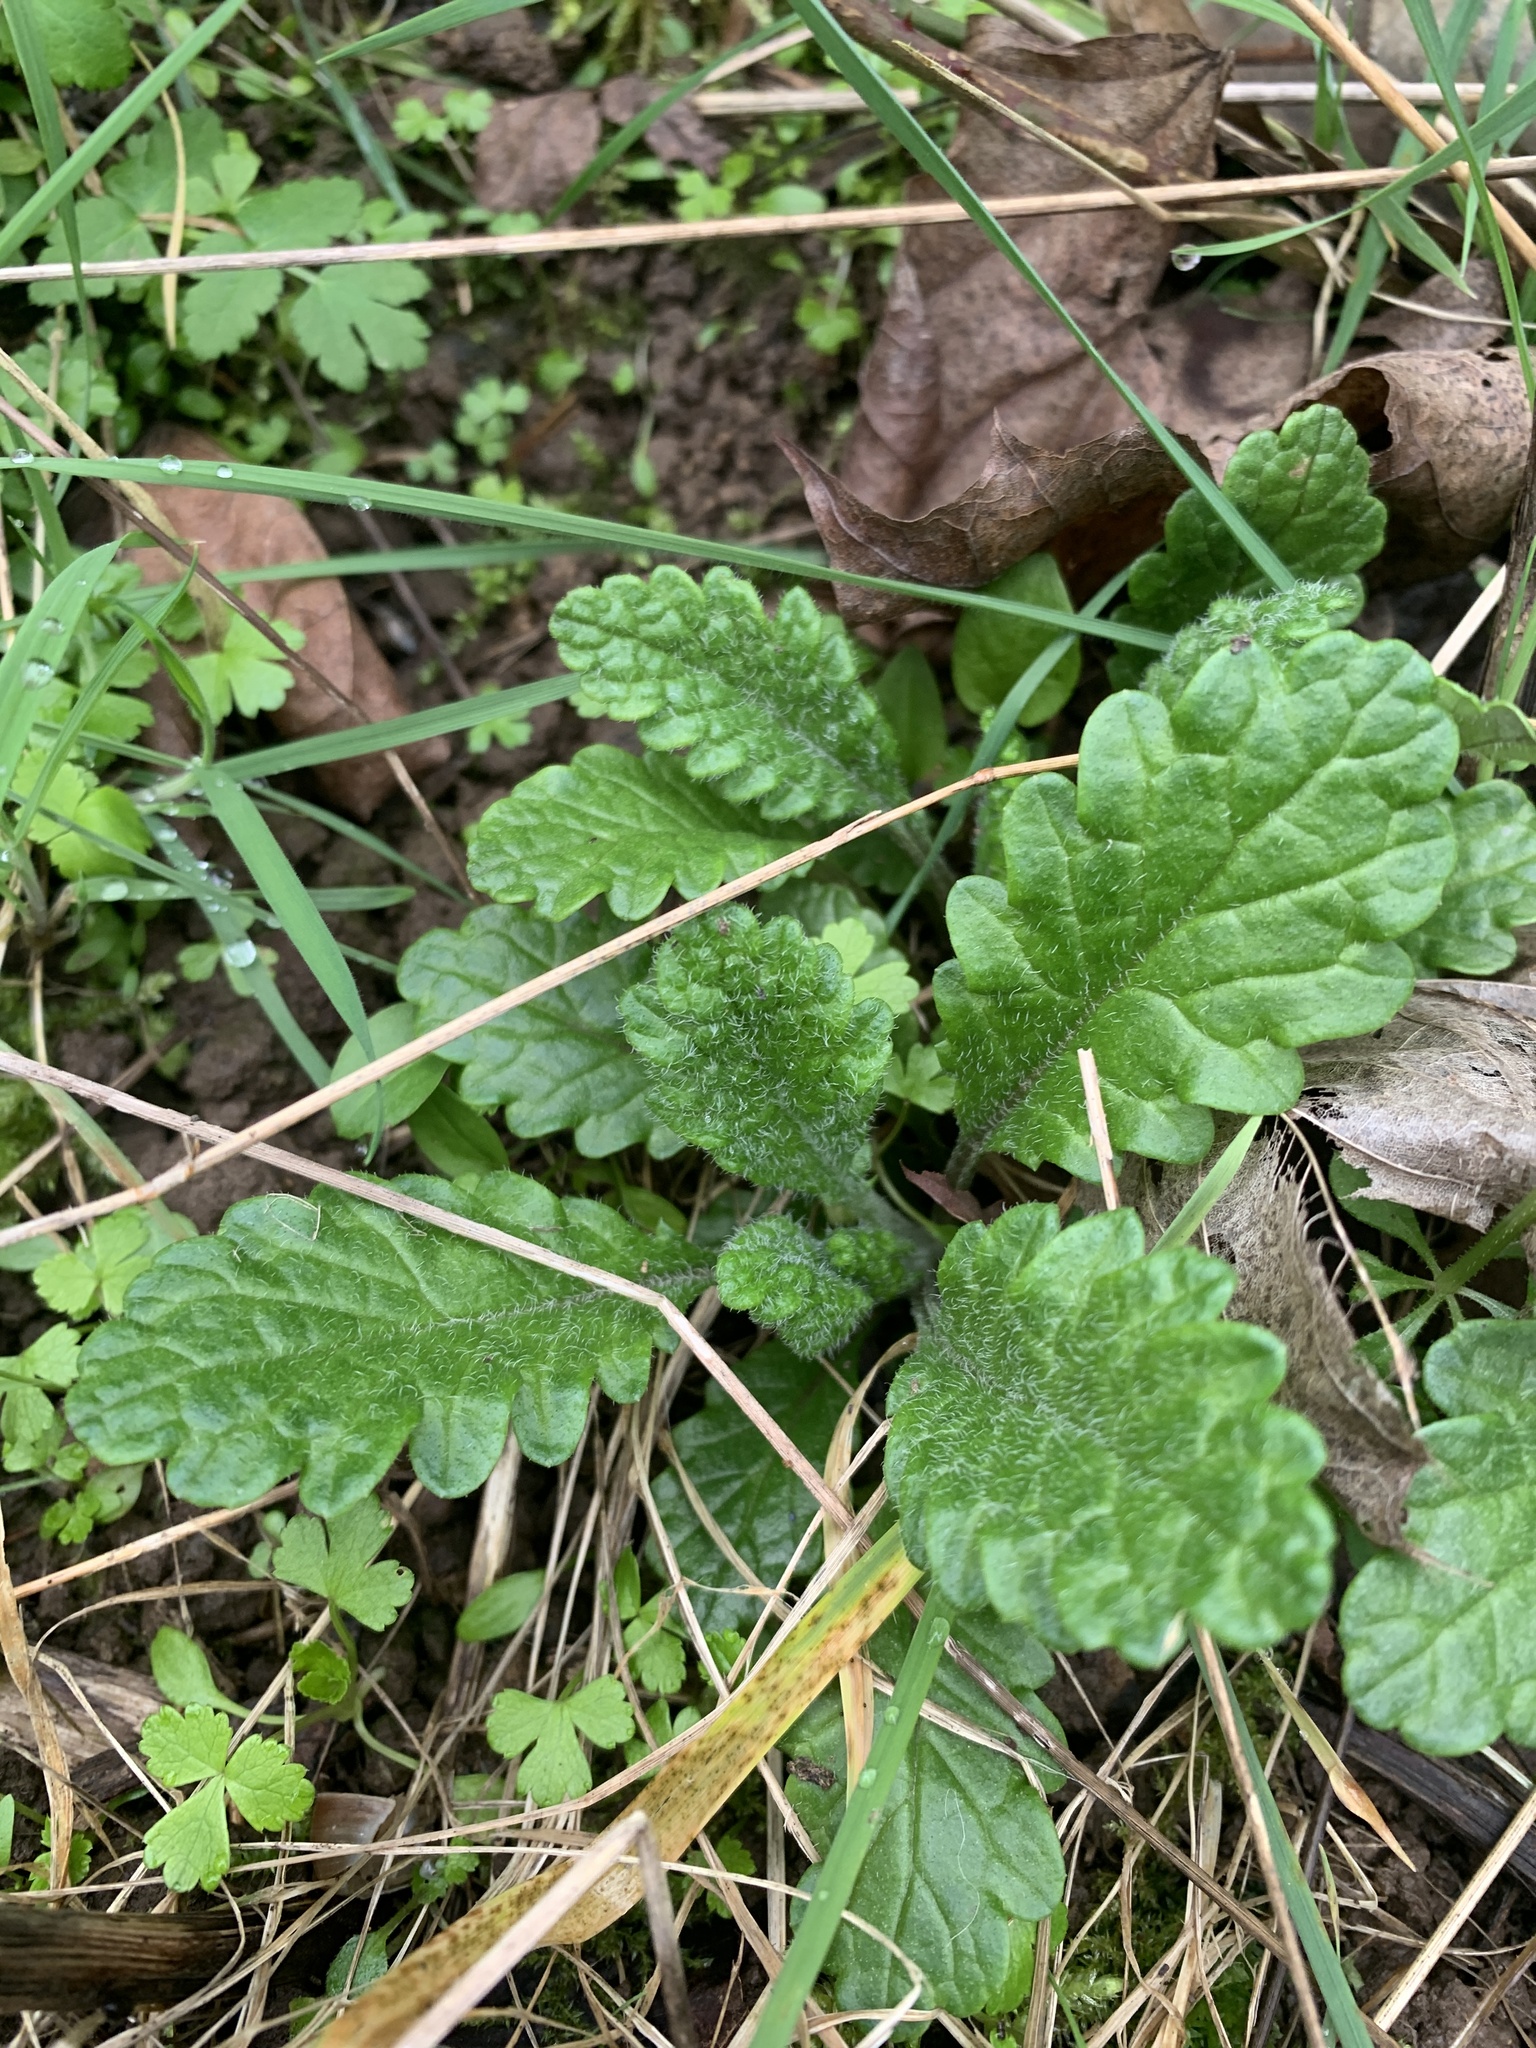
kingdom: Plantae
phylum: Tracheophyta
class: Magnoliopsida
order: Asterales
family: Asteraceae
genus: Jacobaea
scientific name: Jacobaea vulgaris
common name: Stinking willie
